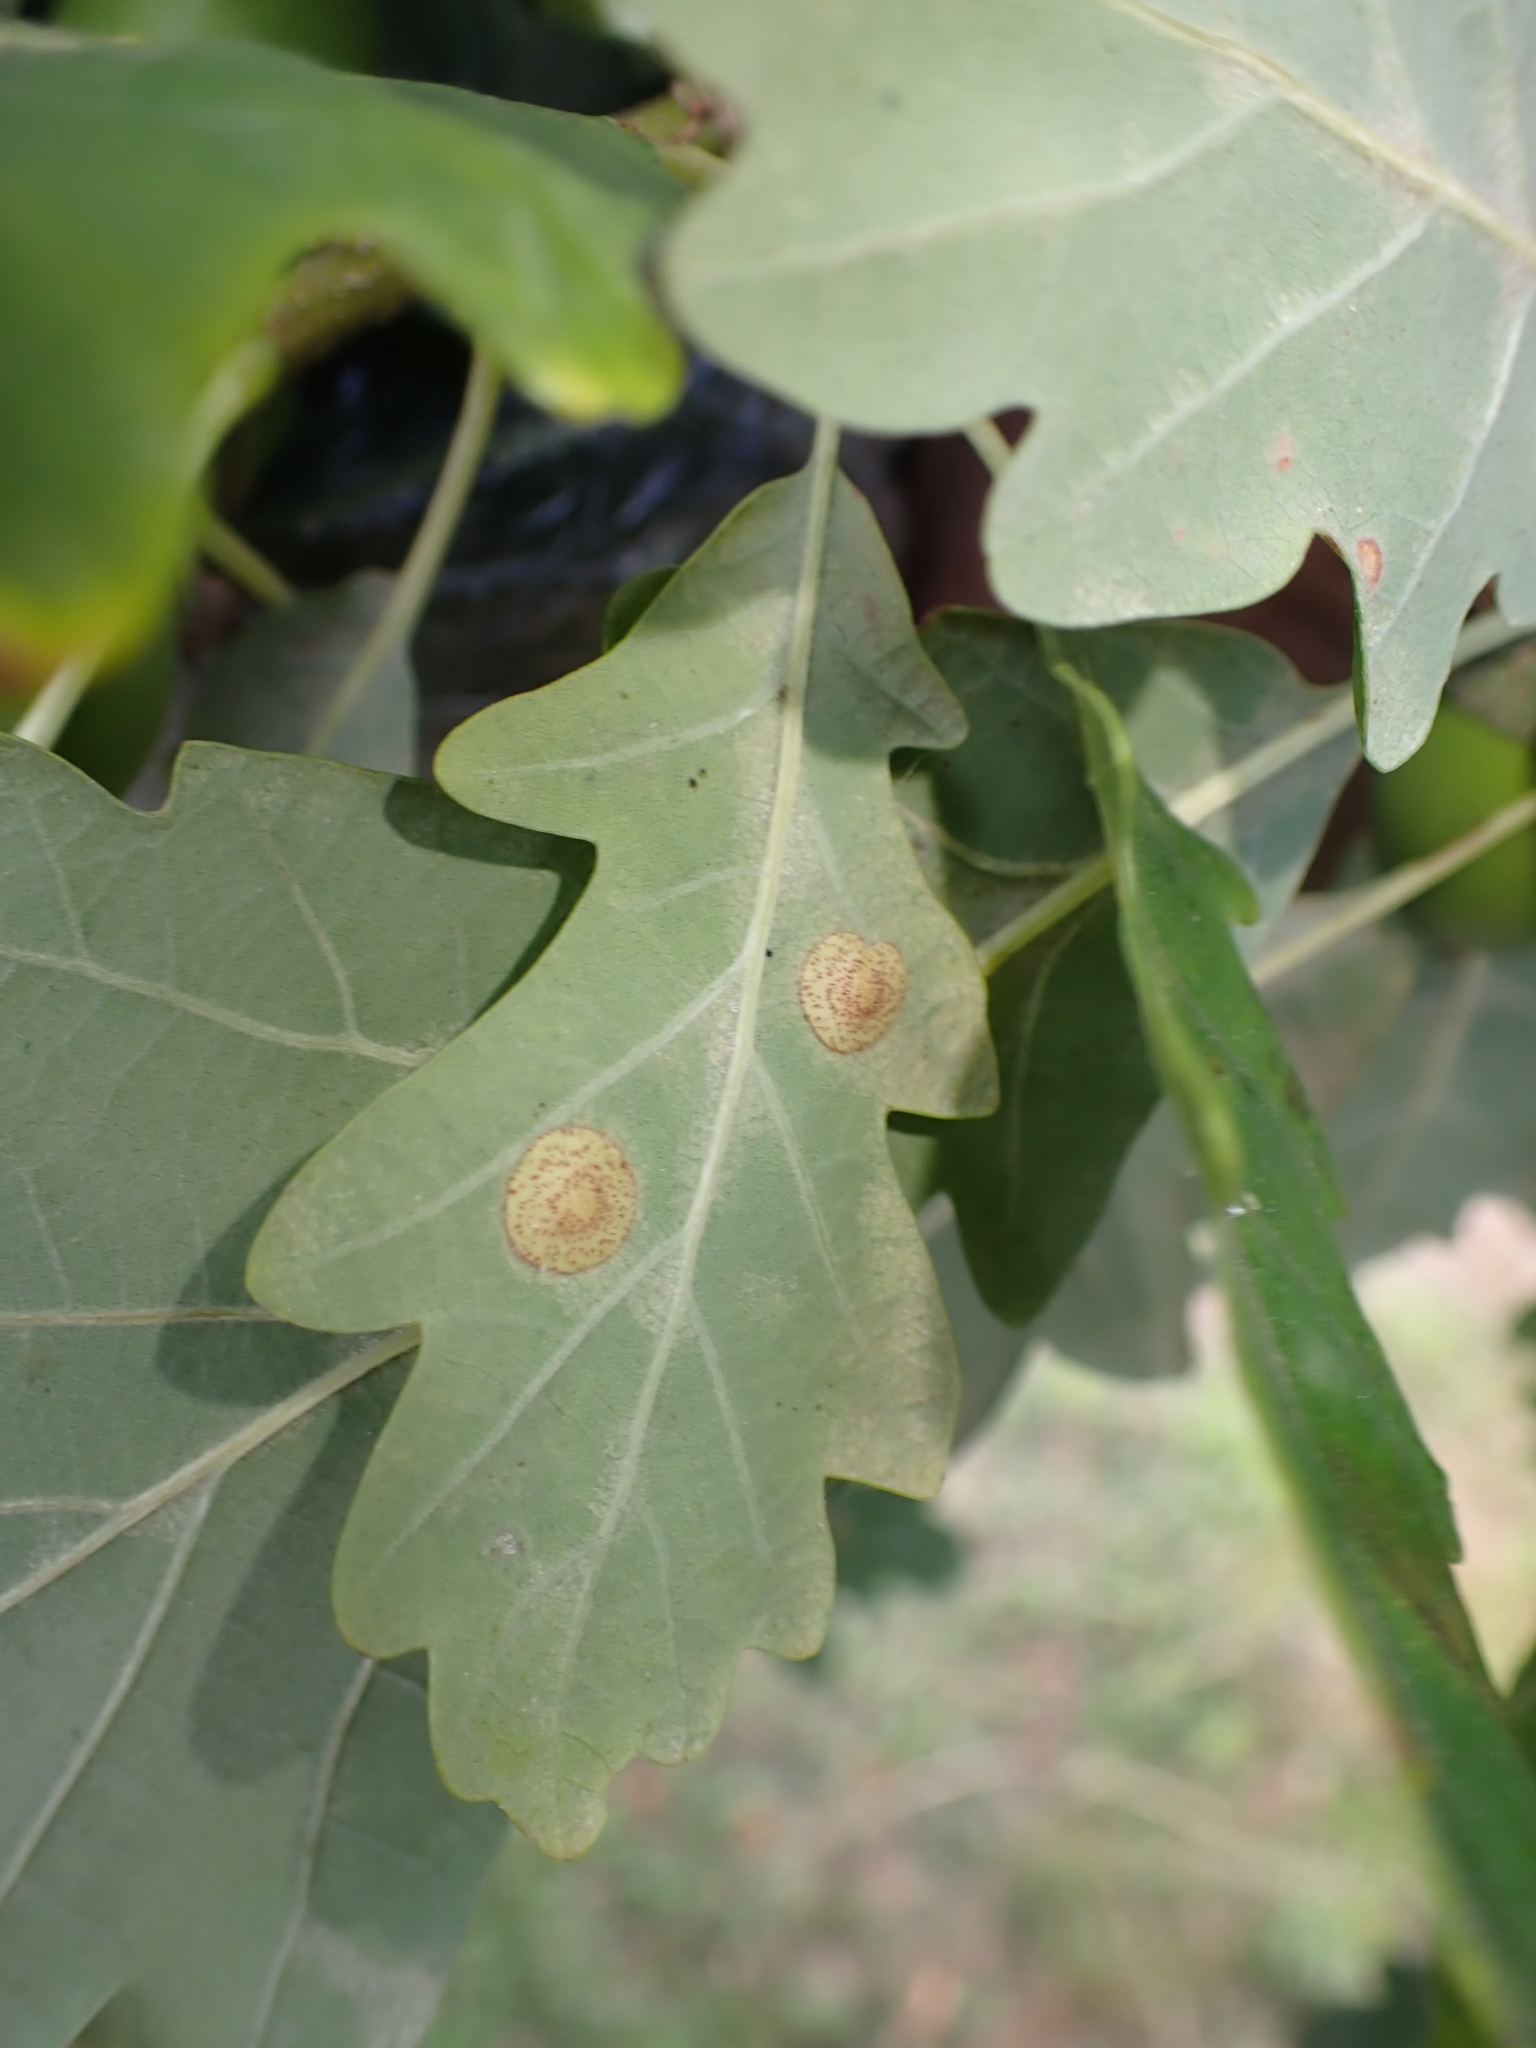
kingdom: Animalia
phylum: Arthropoda
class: Insecta
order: Hymenoptera
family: Cynipidae
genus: Neuroterus
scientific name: Neuroterus quercusbaccarum
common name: Common spangle gall
